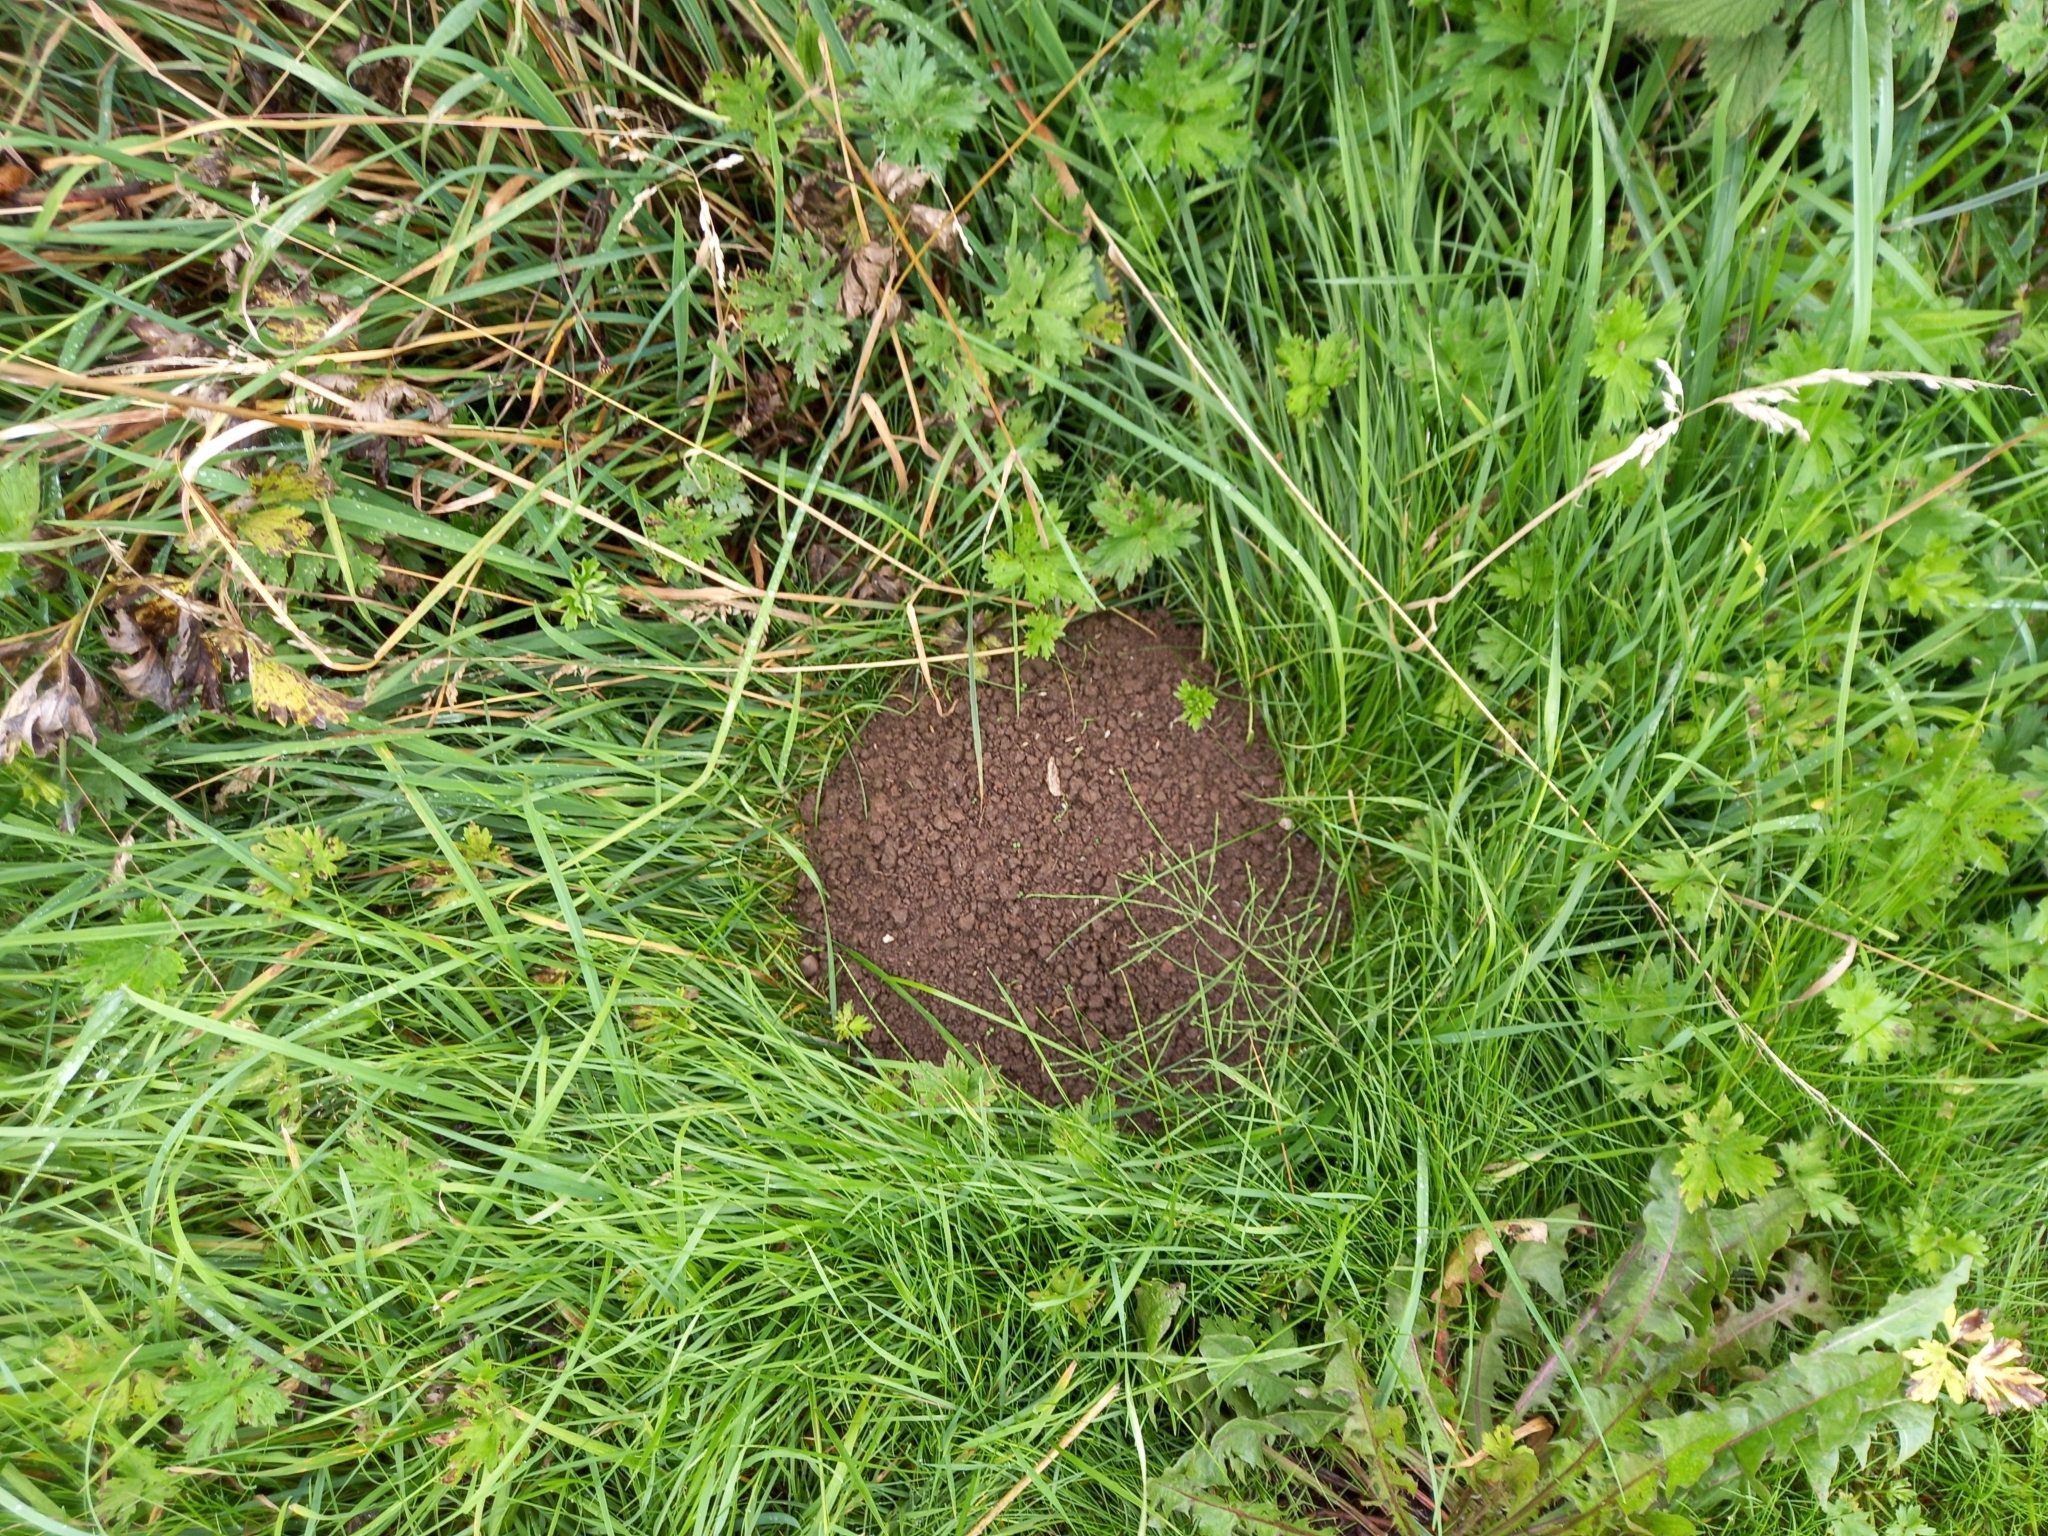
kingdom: Animalia
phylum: Chordata
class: Mammalia
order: Soricomorpha
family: Talpidae
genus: Talpa
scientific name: Talpa europaea
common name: European mole
